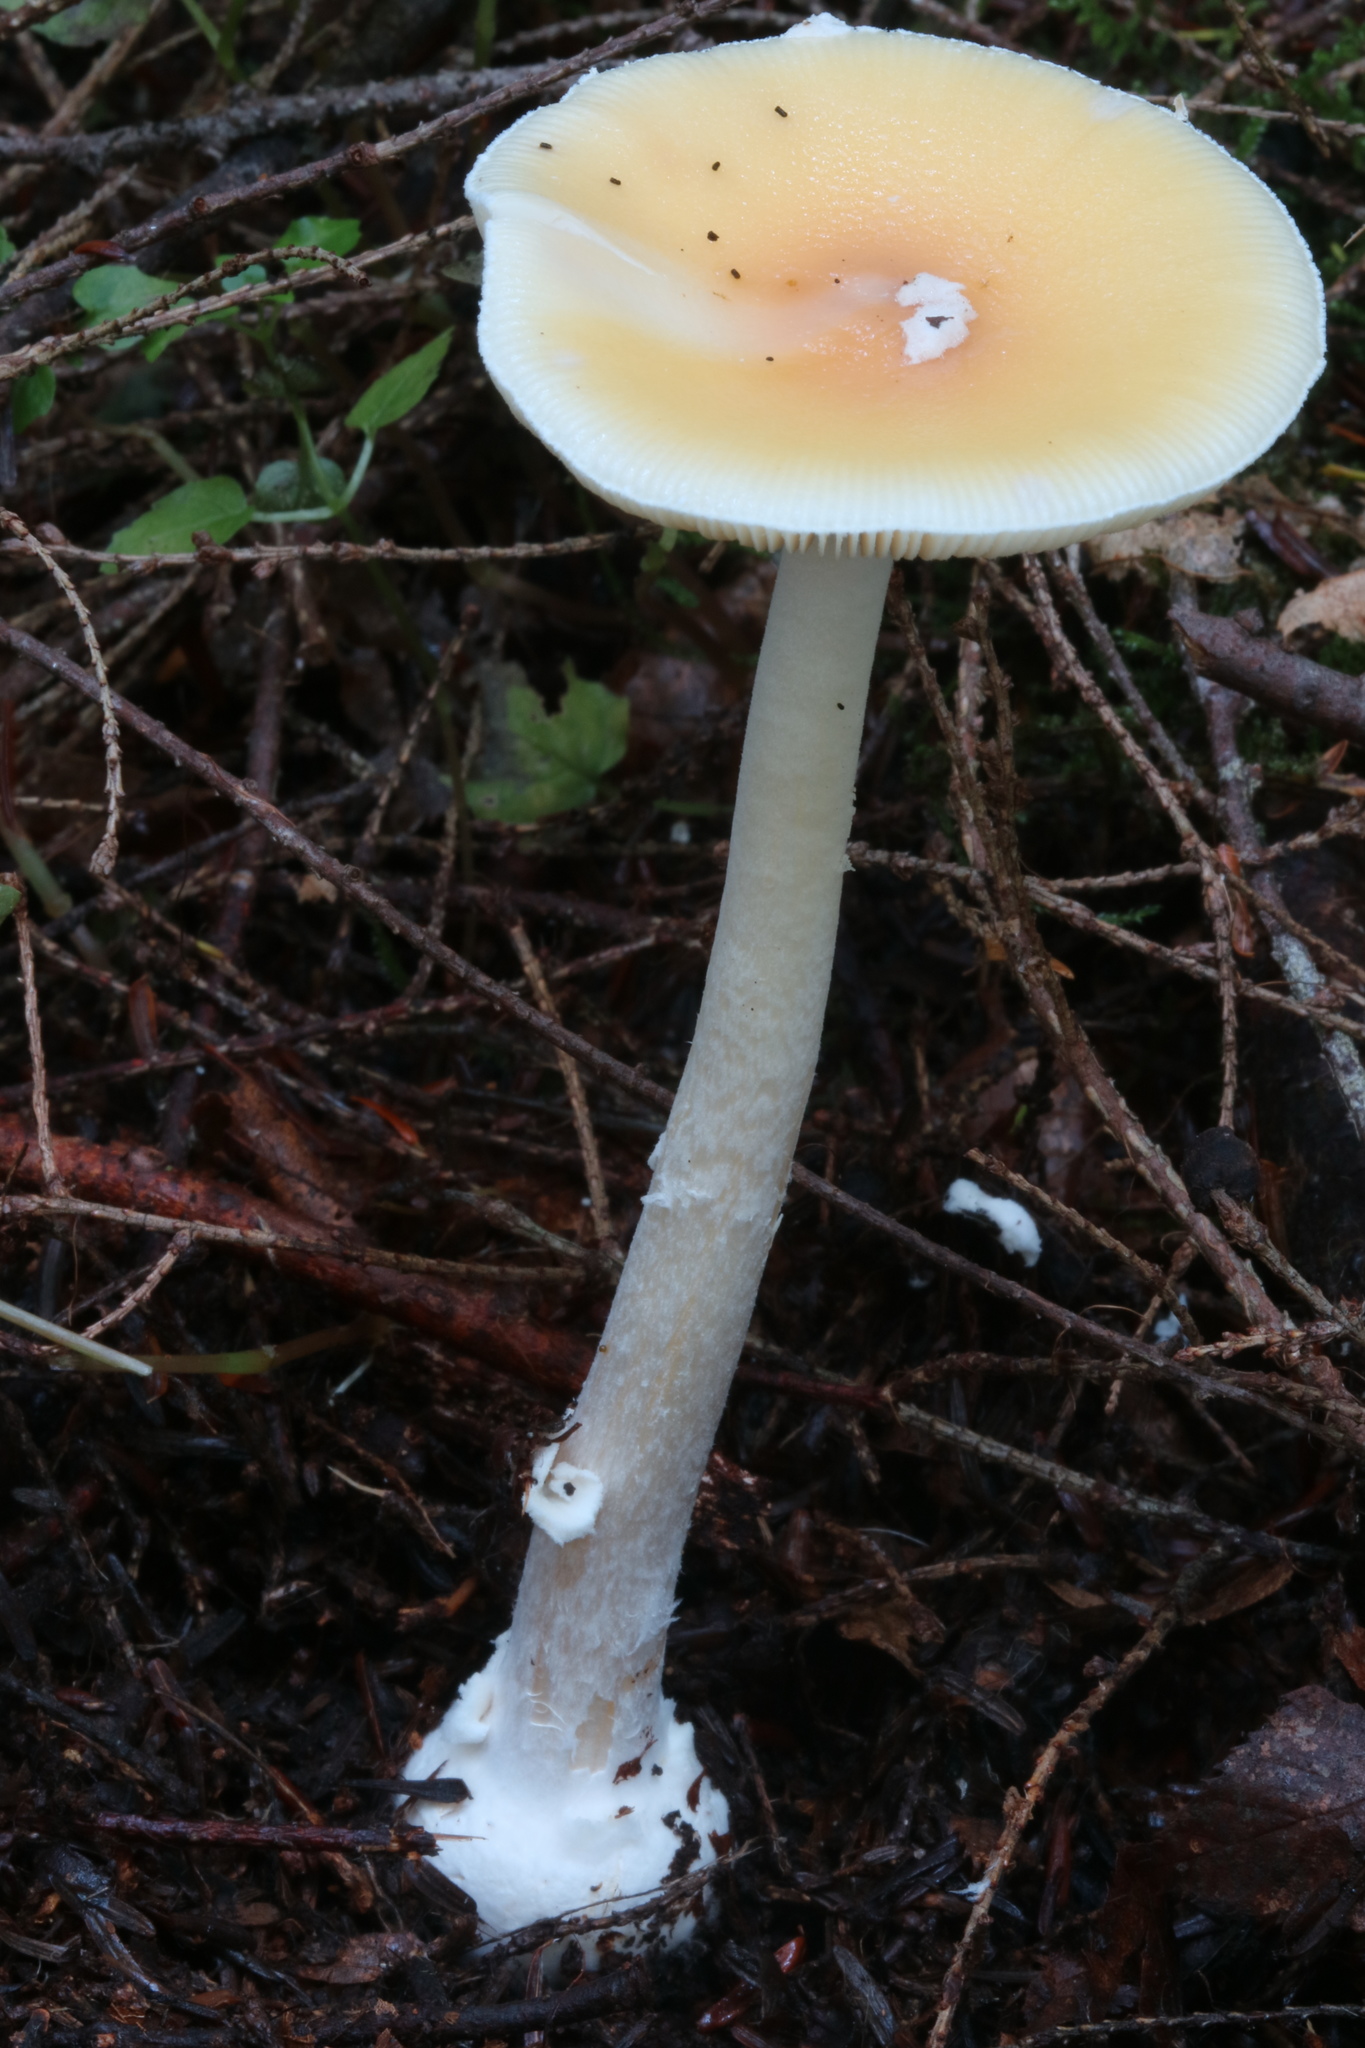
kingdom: Fungi
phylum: Basidiomycota
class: Agaricomycetes
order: Agaricales
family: Amanitaceae
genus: Amanita
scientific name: Amanita albocreata
